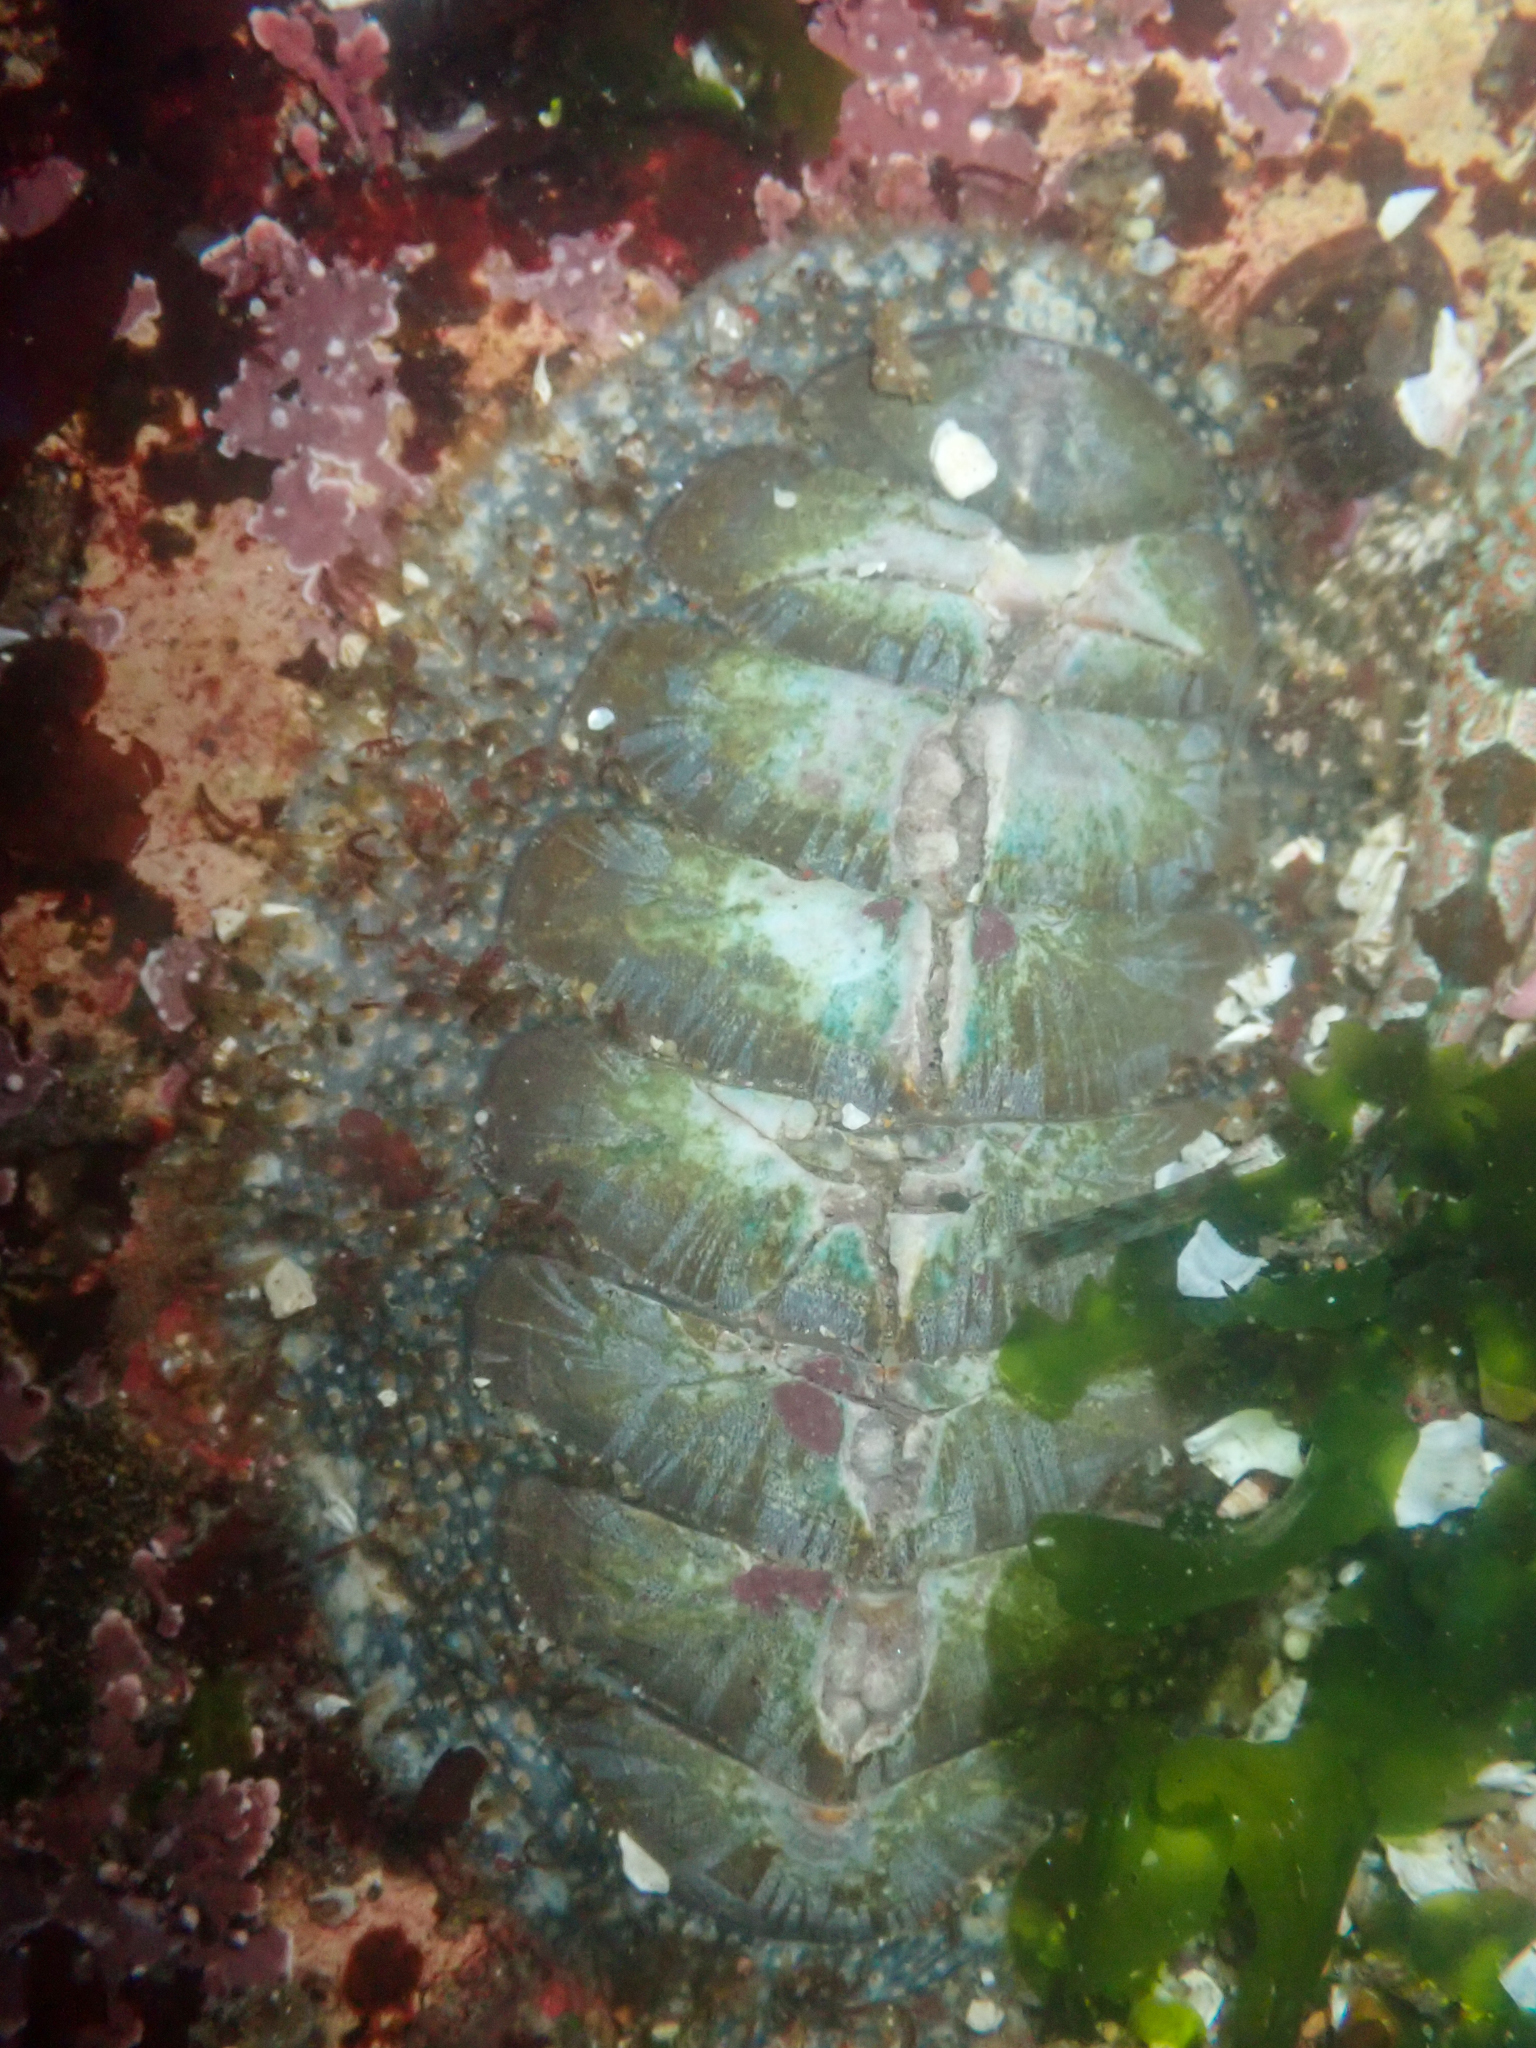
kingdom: Animalia
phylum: Mollusca
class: Polyplacophora
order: Chitonida
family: Mopaliidae
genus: Mopalia
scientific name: Mopalia lignosa
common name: Woody chiton
